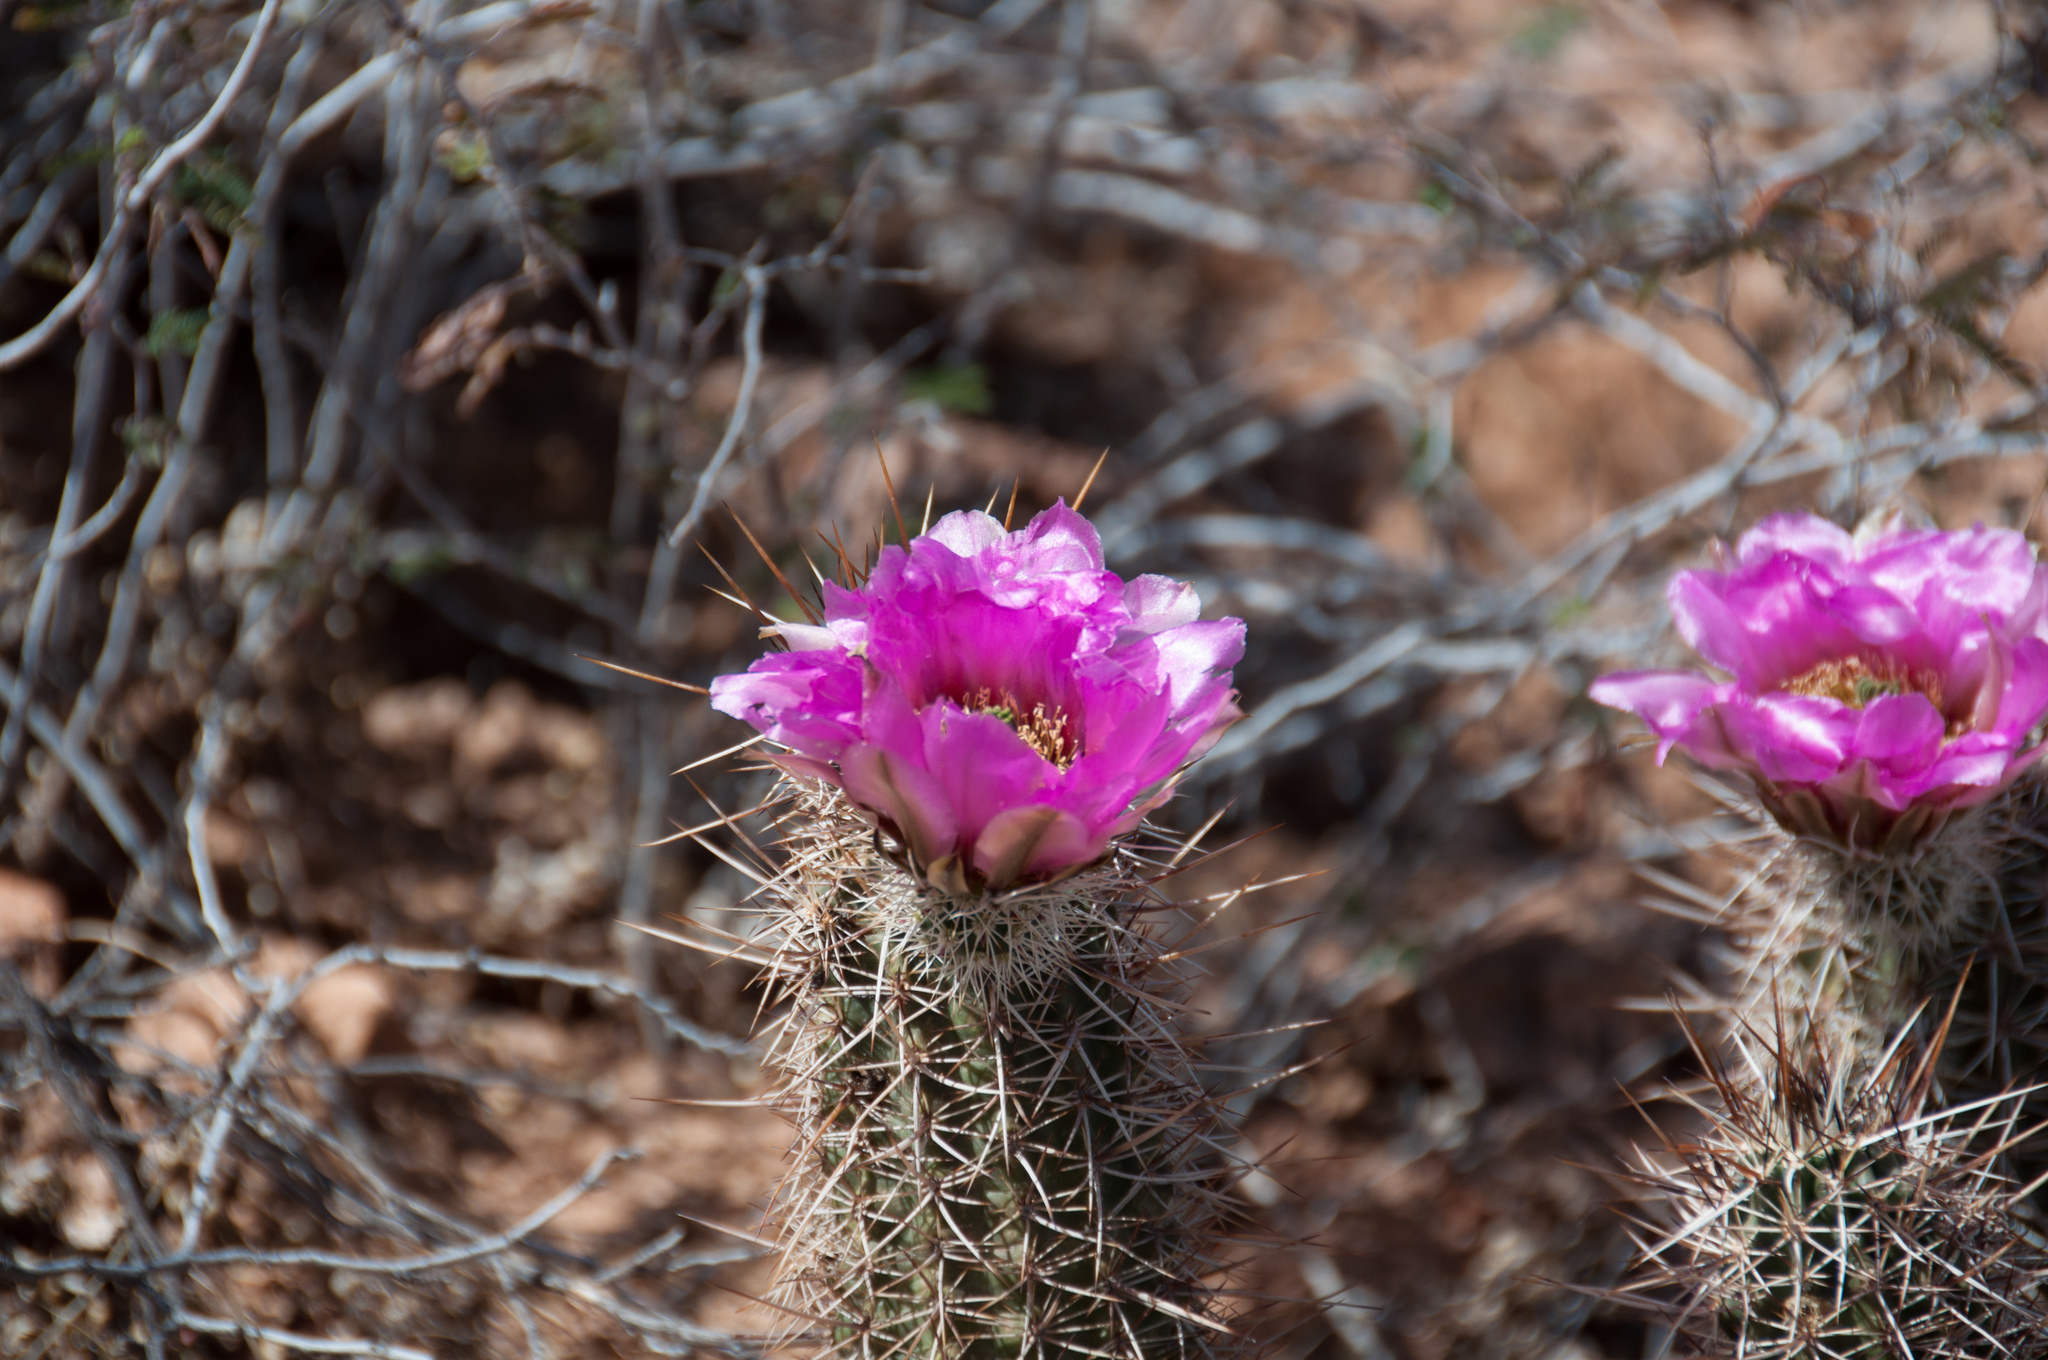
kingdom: Plantae
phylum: Tracheophyta
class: Magnoliopsida
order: Caryophyllales
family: Cactaceae
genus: Echinocereus
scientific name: Echinocereus fasciculatus
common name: Bundle hedgehog
